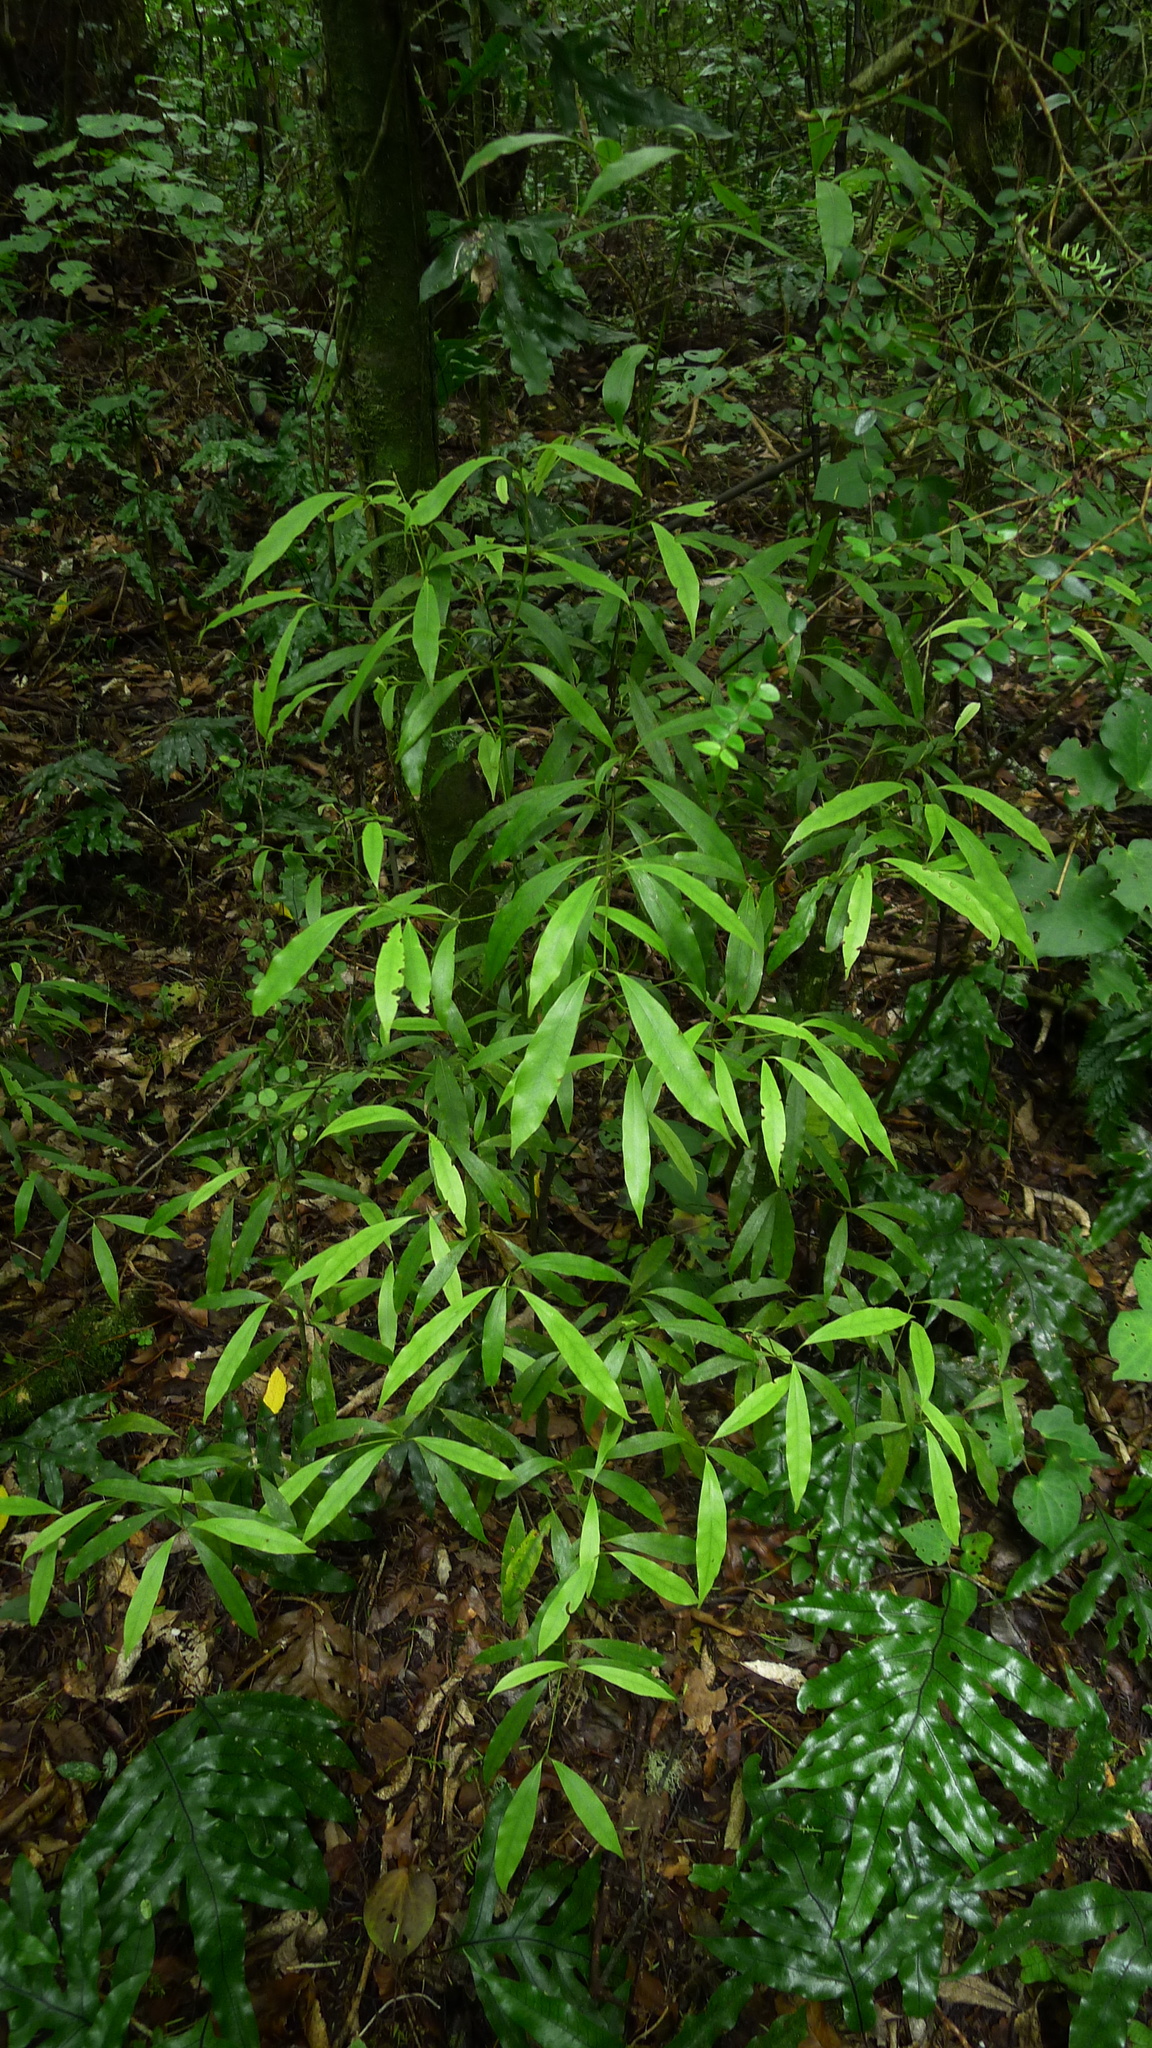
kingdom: Plantae
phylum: Tracheophyta
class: Magnoliopsida
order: Laurales
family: Lauraceae
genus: Beilschmiedia
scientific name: Beilschmiedia tawa
